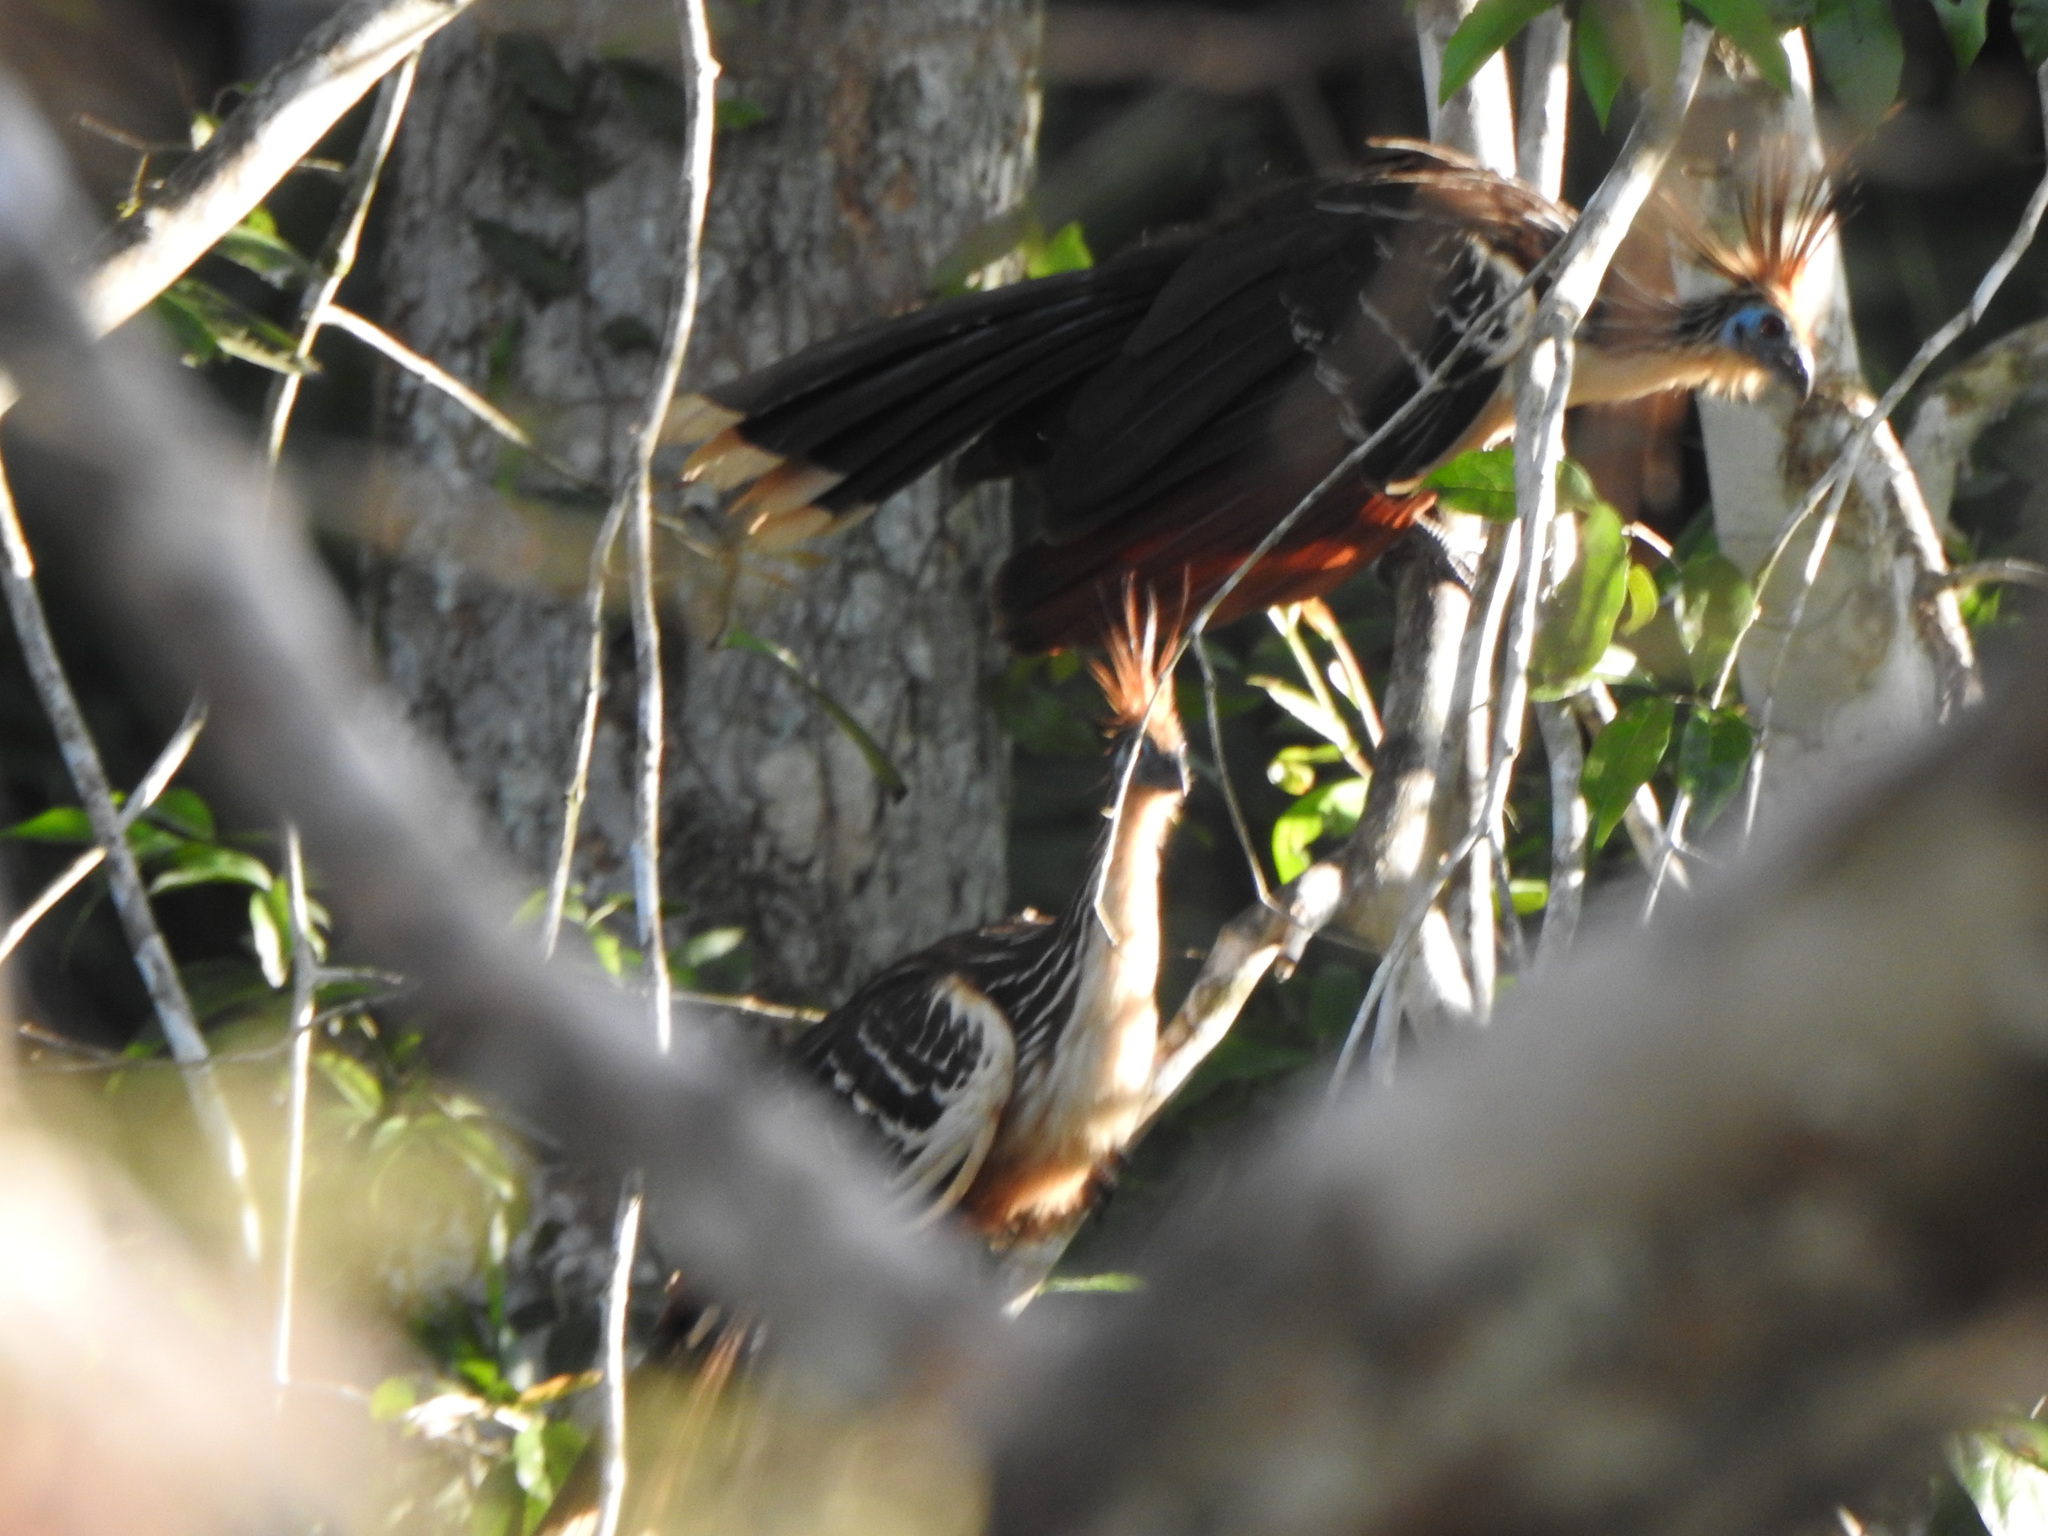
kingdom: Animalia
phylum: Chordata
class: Aves
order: Opisthocomiformes
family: Opisthocomidae
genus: Opisthocomus
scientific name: Opisthocomus hoazin
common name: Hoatzin
